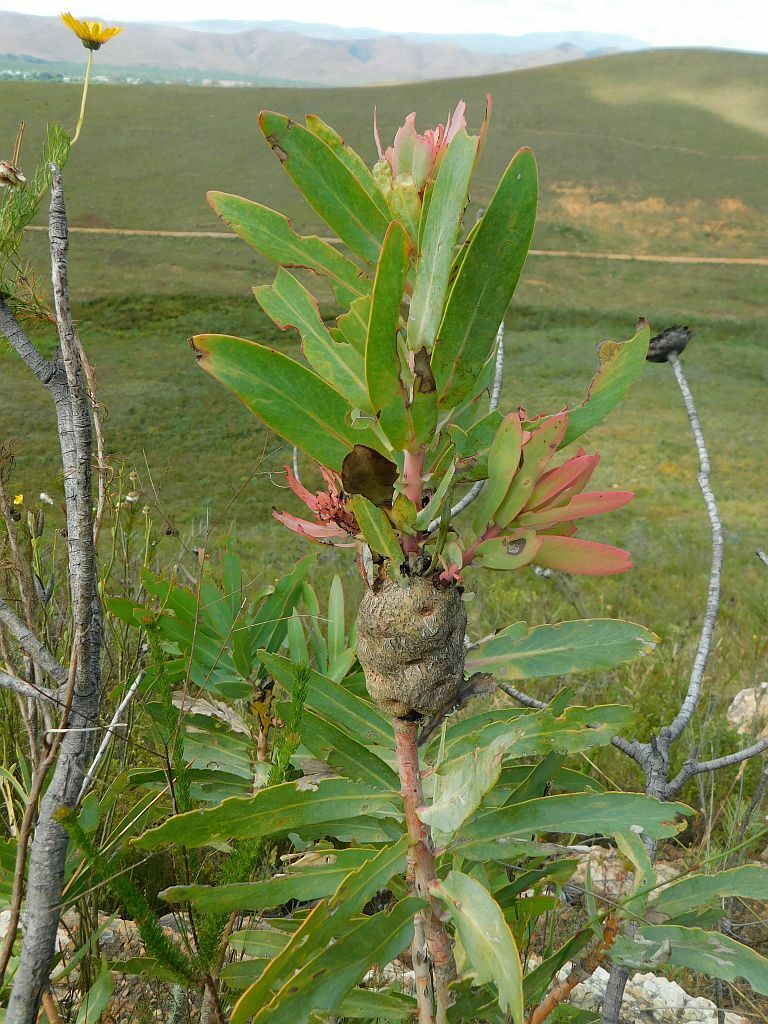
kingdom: Plantae
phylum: Tracheophyta
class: Magnoliopsida
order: Proteales
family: Proteaceae
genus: Protea
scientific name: Protea nitida
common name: Tree protea
